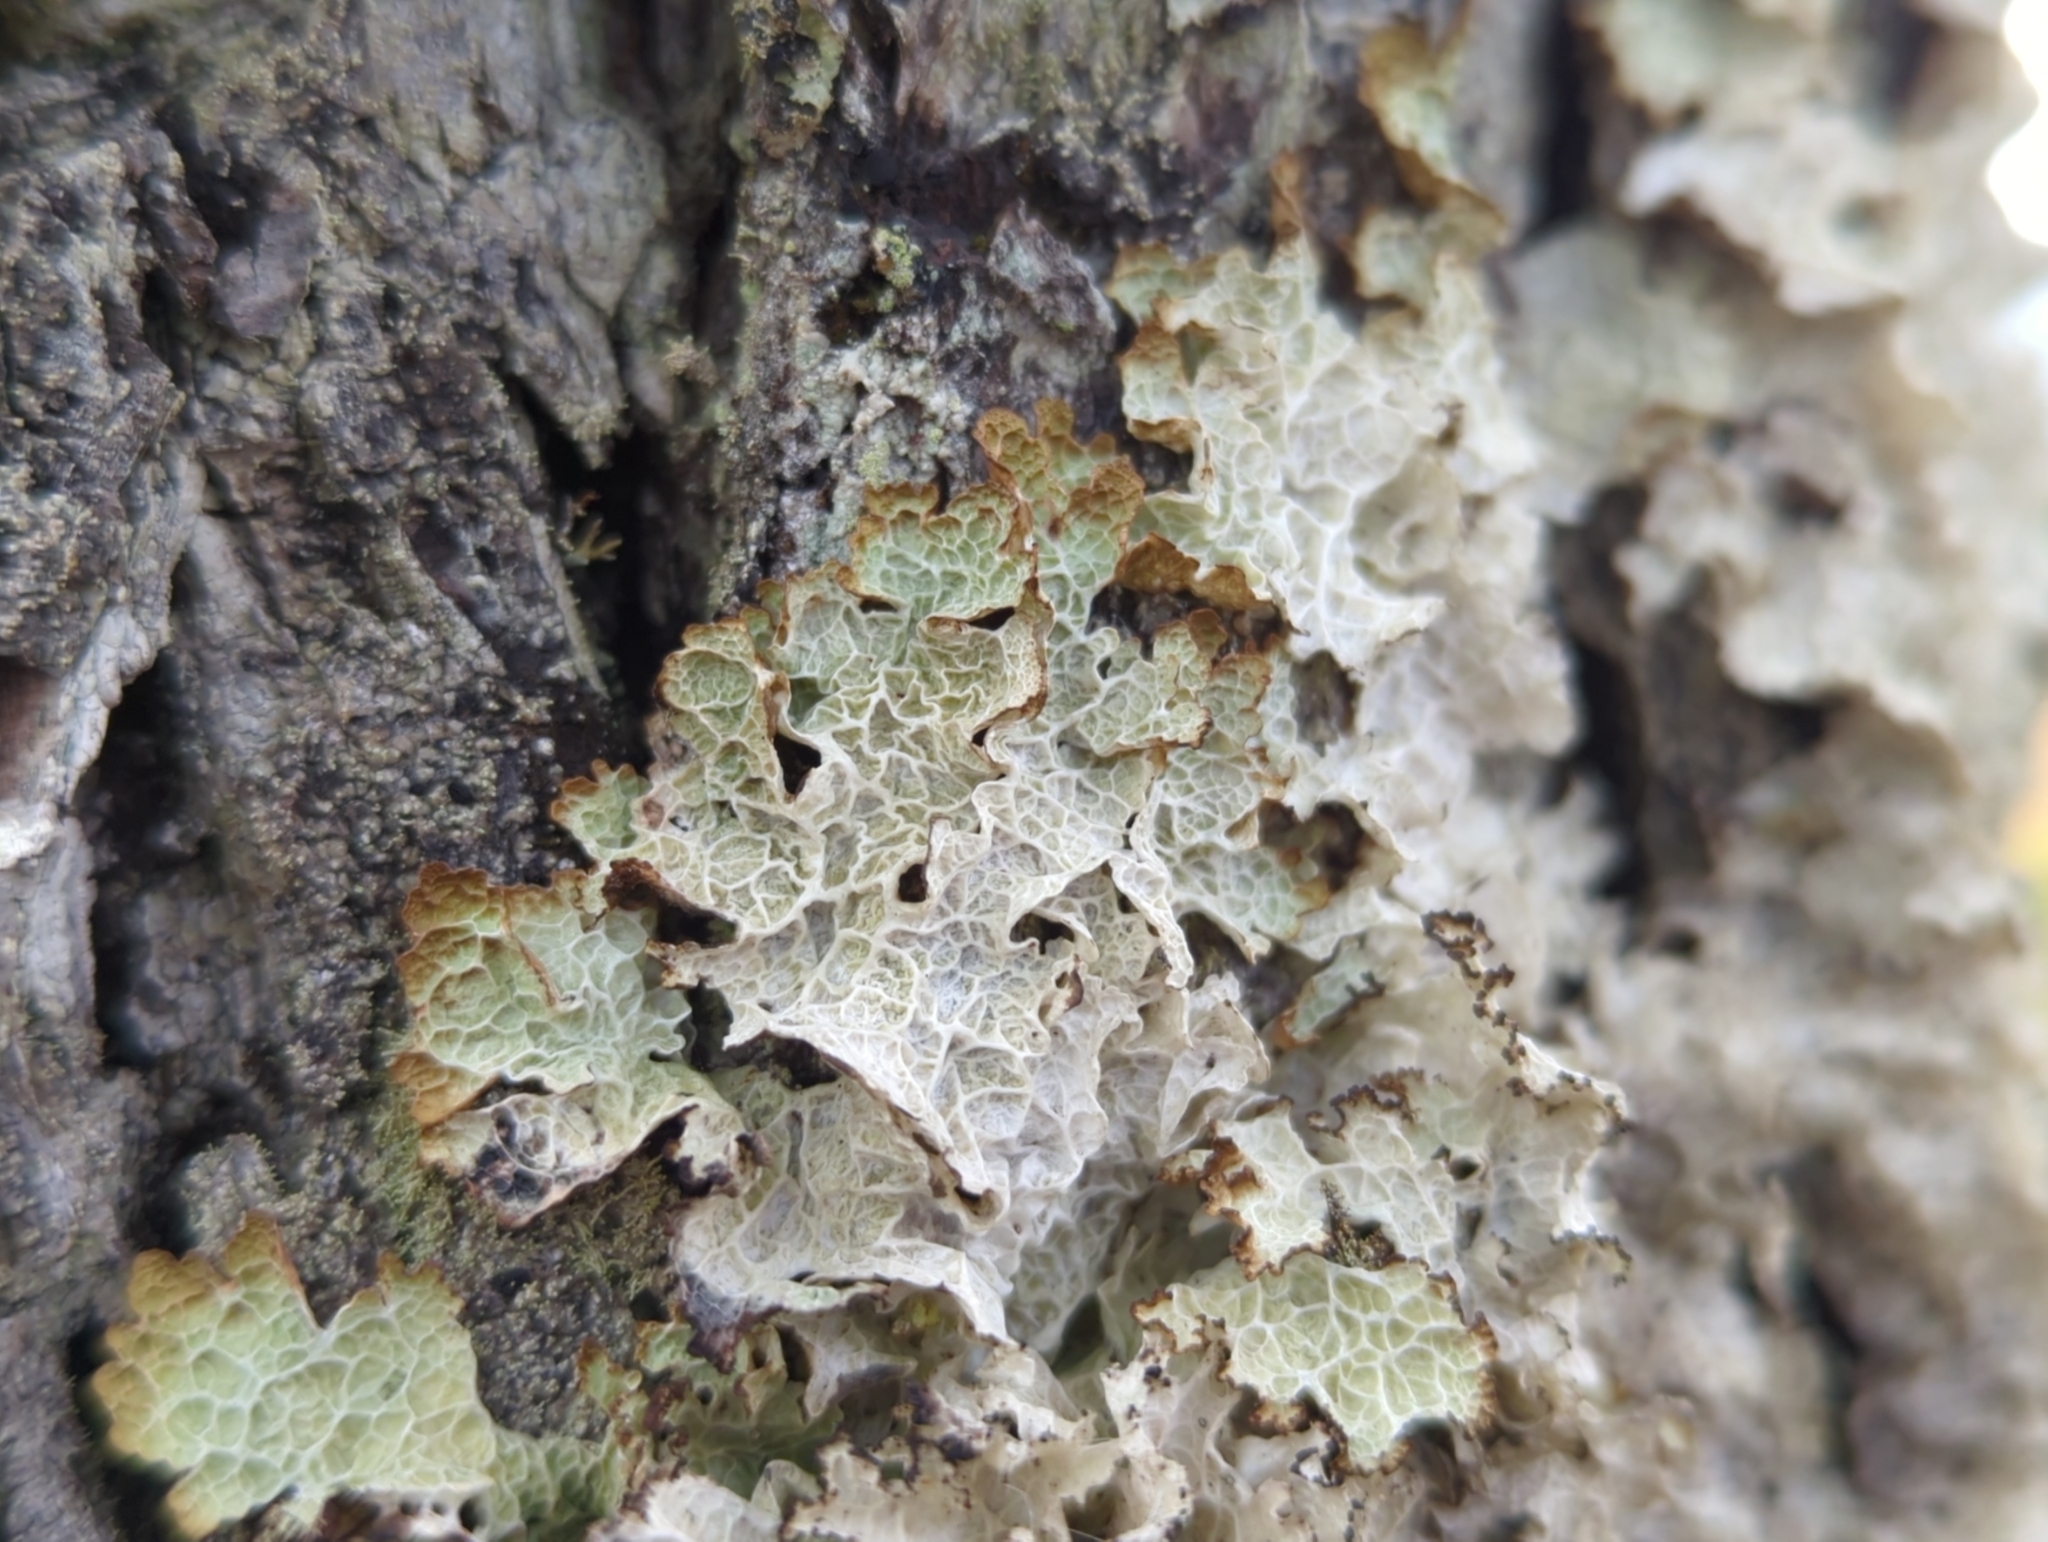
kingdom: Fungi
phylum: Ascomycota
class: Lecanoromycetes
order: Lecanorales
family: Parmeliaceae
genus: Platismatia
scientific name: Platismatia norvegica
